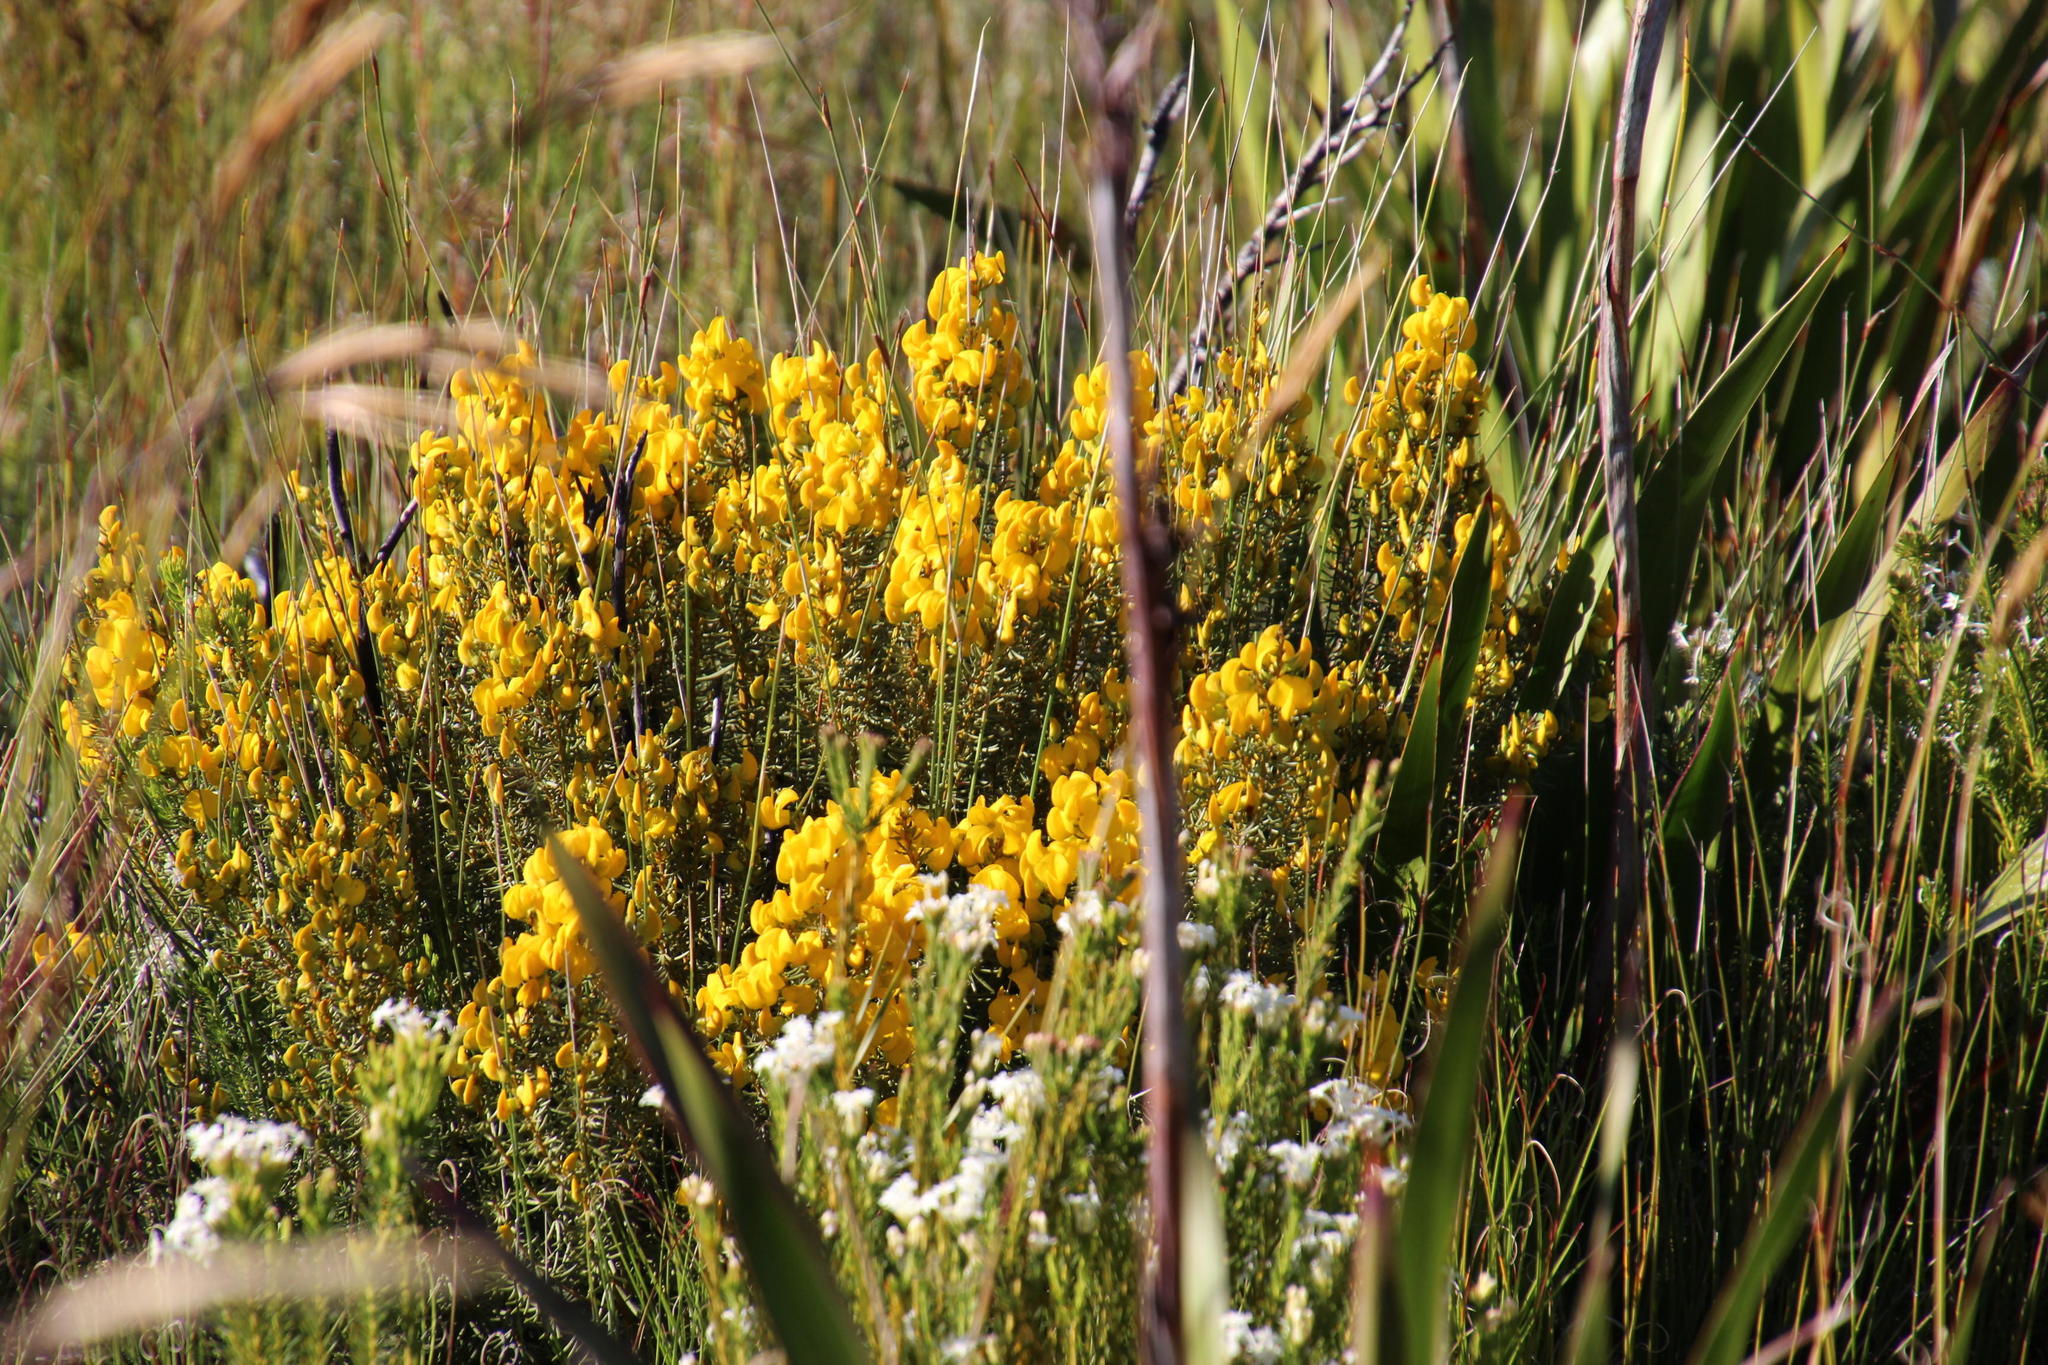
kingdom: Plantae
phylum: Tracheophyta
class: Magnoliopsida
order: Fabales
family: Fabaceae
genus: Cyclopia
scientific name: Cyclopia genistoides
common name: Honeybush tea
